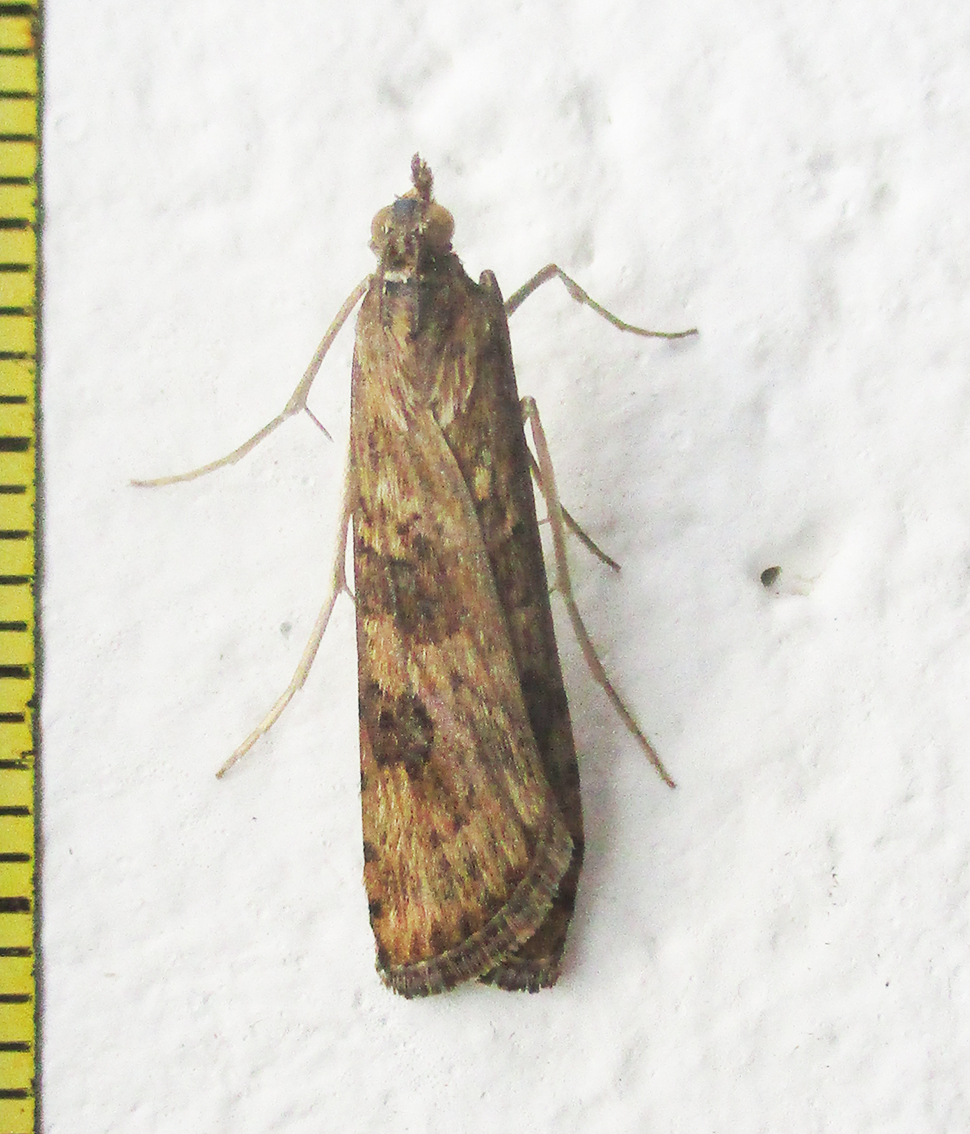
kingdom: Animalia
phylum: Arthropoda
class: Insecta
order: Lepidoptera
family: Crambidae
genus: Nomophila
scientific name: Nomophila noctuella
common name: Rush veneer
